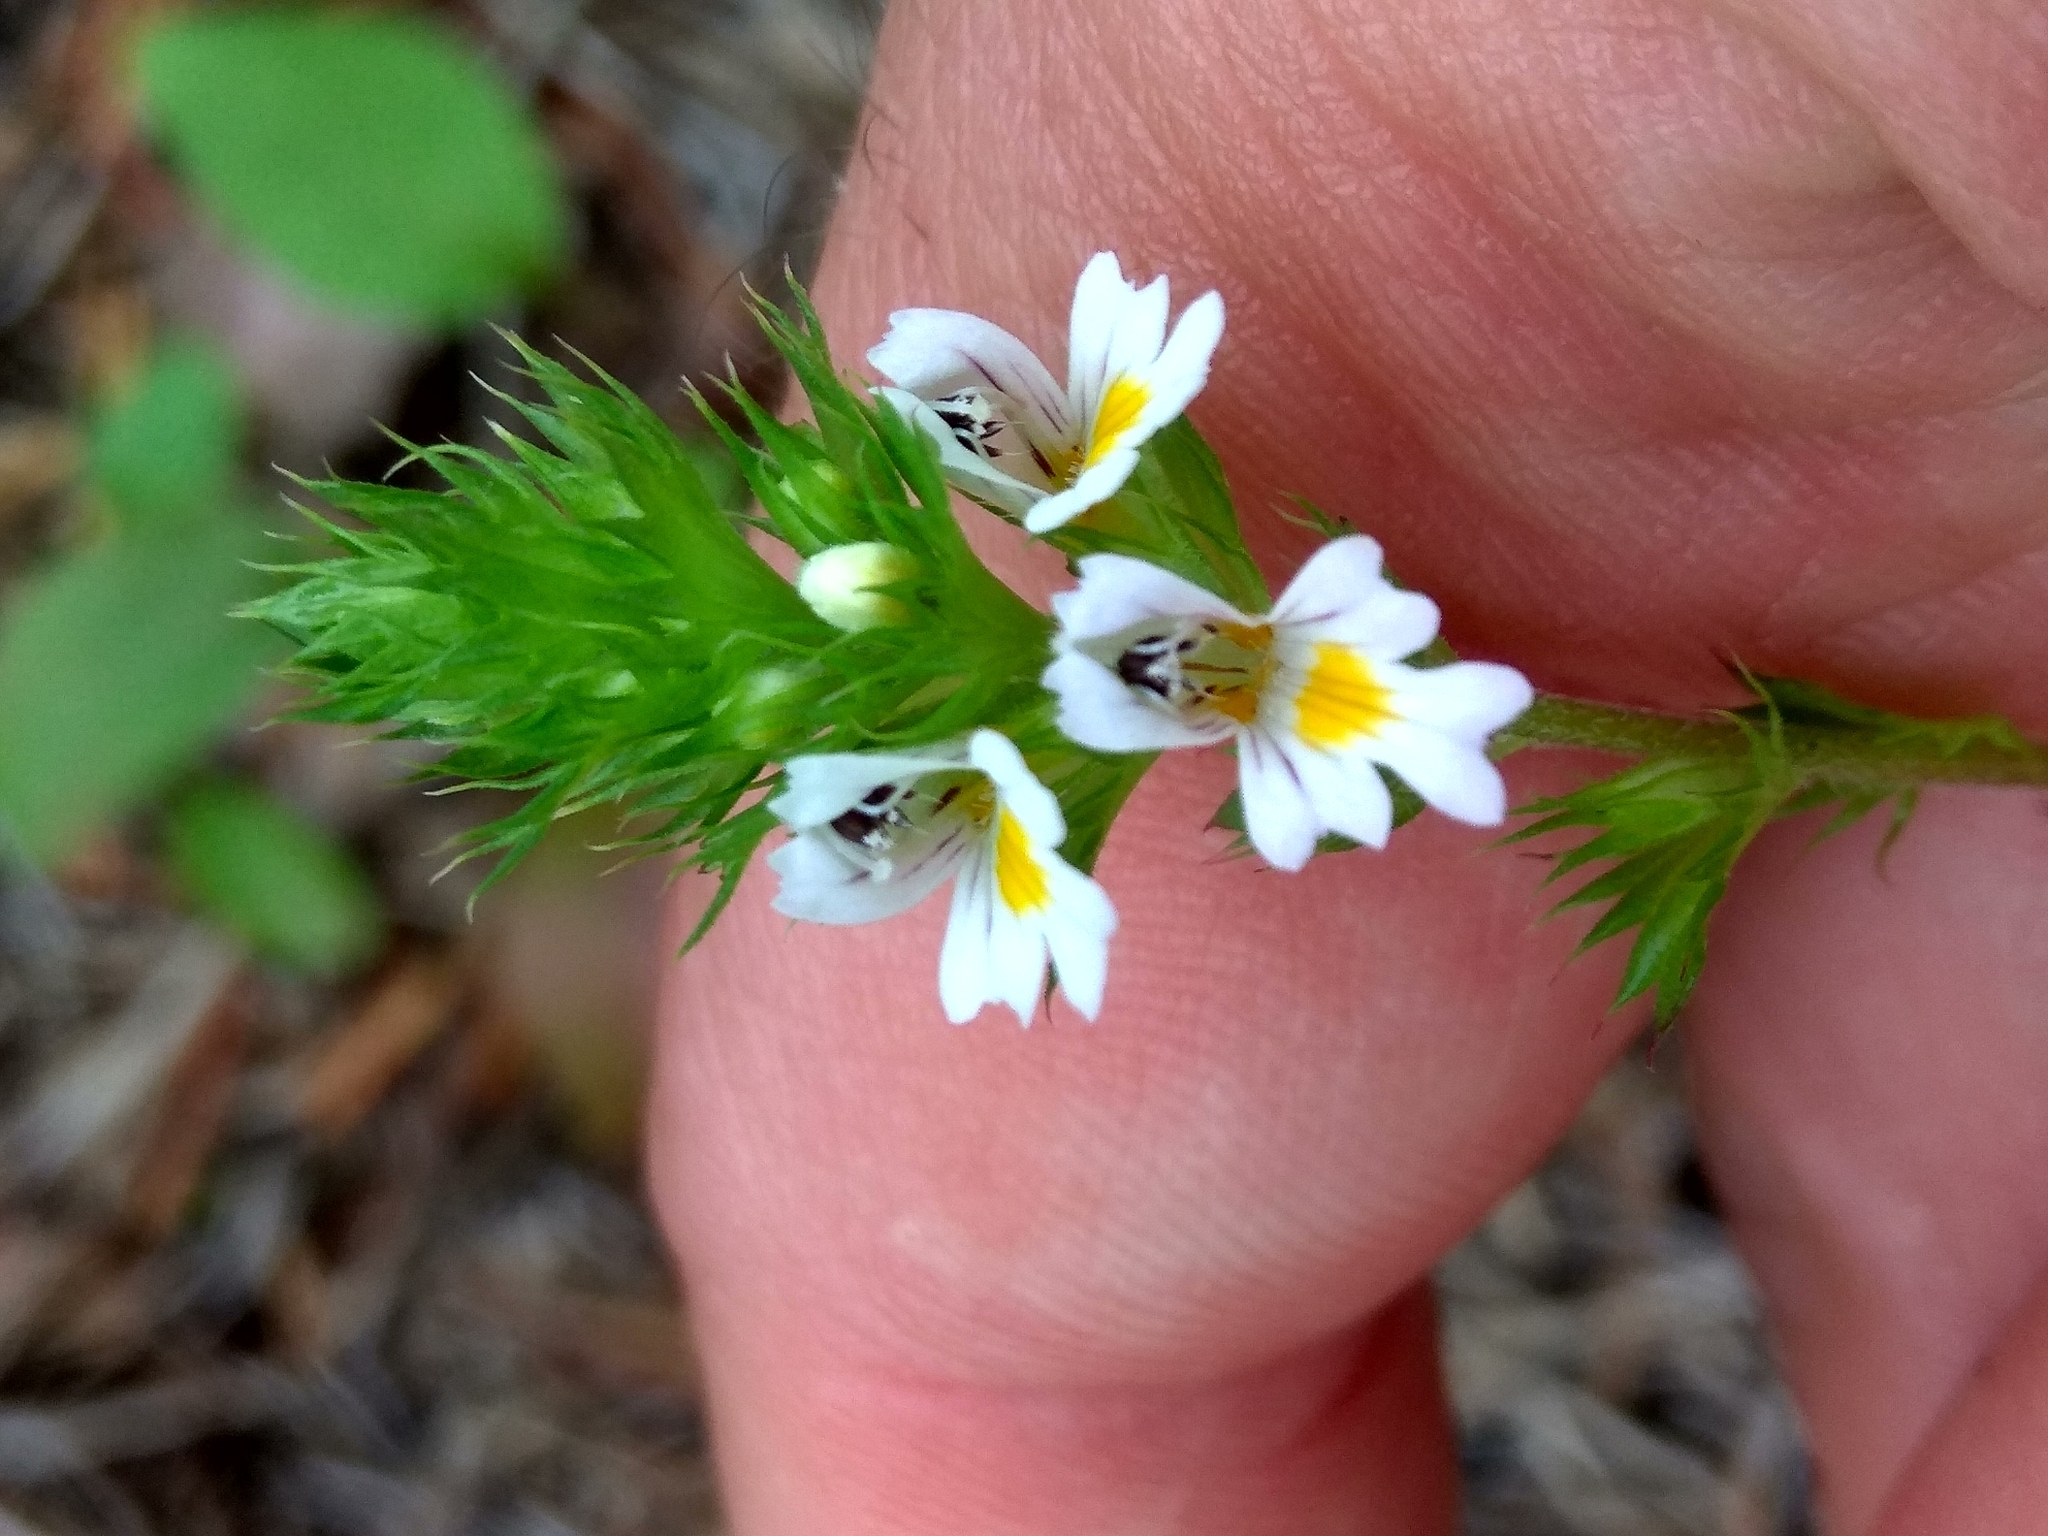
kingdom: Plantae
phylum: Tracheophyta
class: Magnoliopsida
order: Lamiales
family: Orobanchaceae
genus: Euphrasia
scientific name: Euphrasia stricta
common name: Drug eyebright
